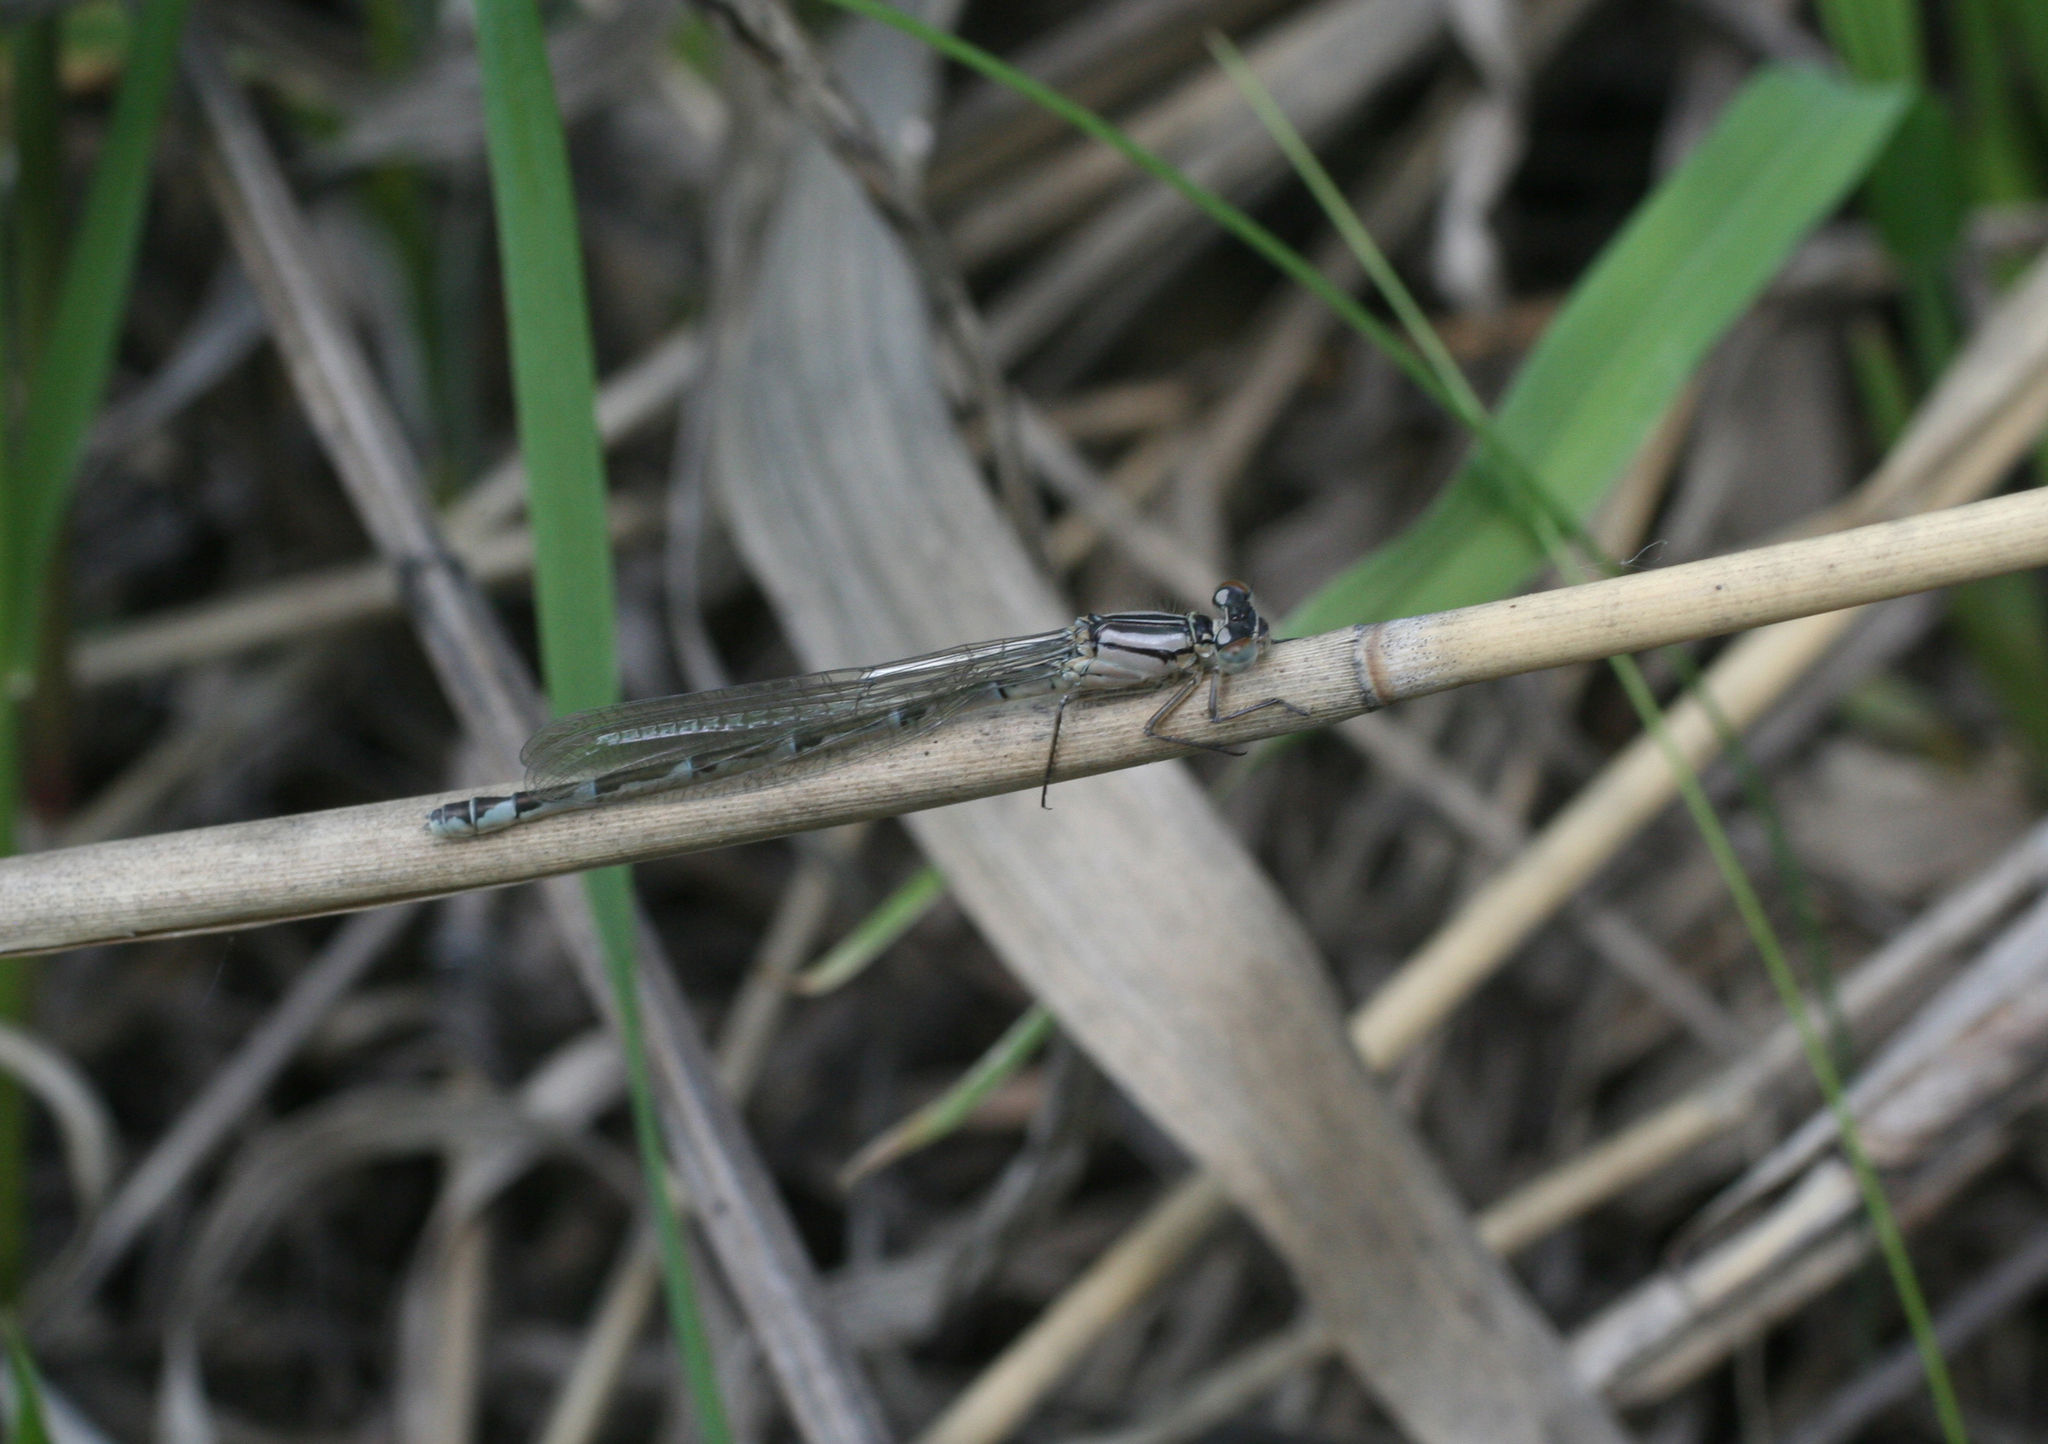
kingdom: Animalia
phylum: Arthropoda
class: Insecta
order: Odonata
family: Coenagrionidae
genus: Enallagma
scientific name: Enallagma cyathigerum
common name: Common blue damselfly
